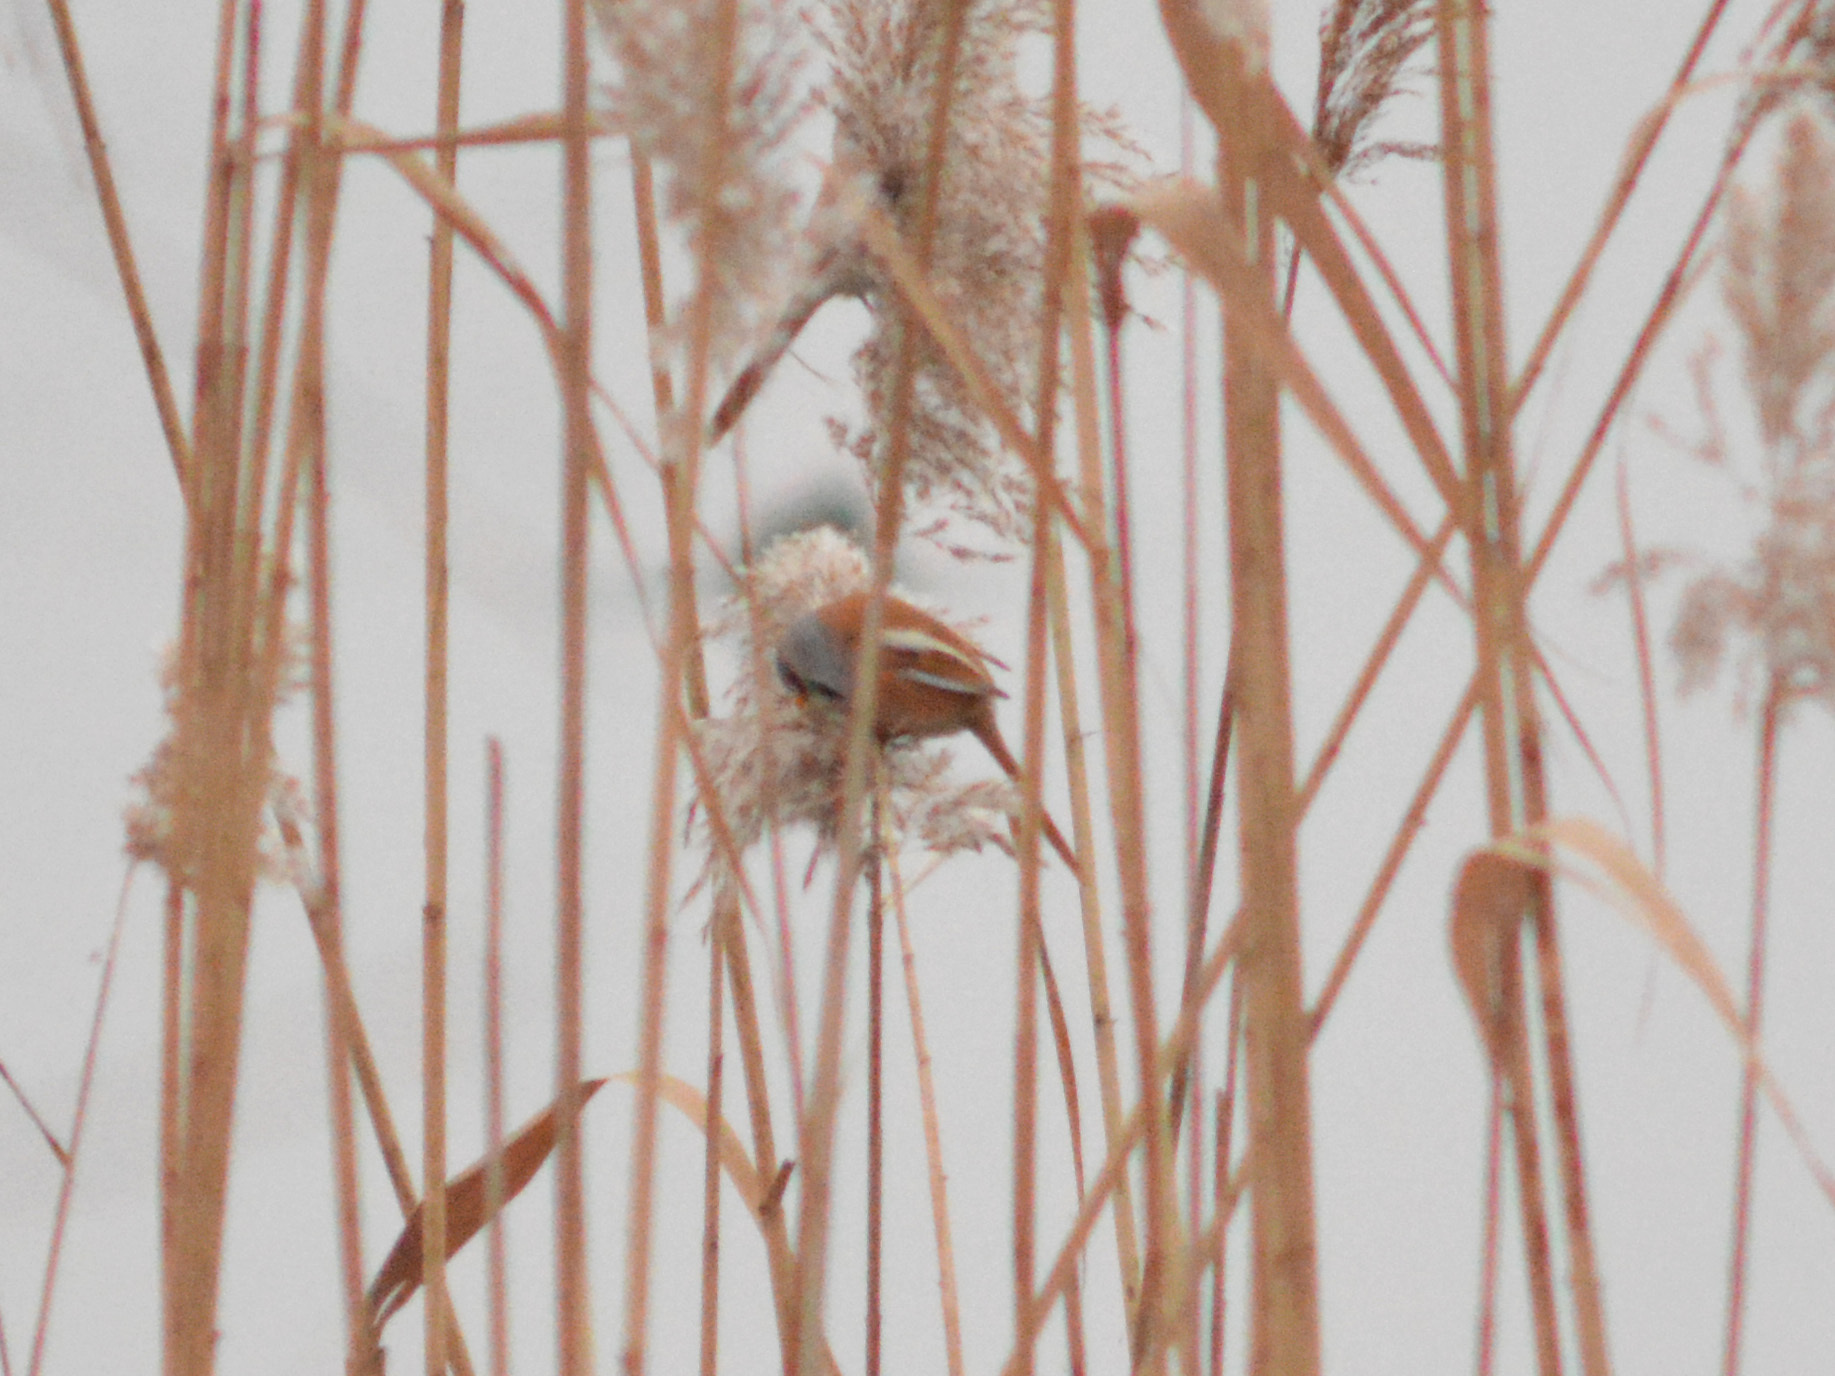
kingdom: Animalia
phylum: Chordata
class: Aves
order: Passeriformes
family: Panuridae
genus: Panurus
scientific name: Panurus biarmicus
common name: Bearded reedling
